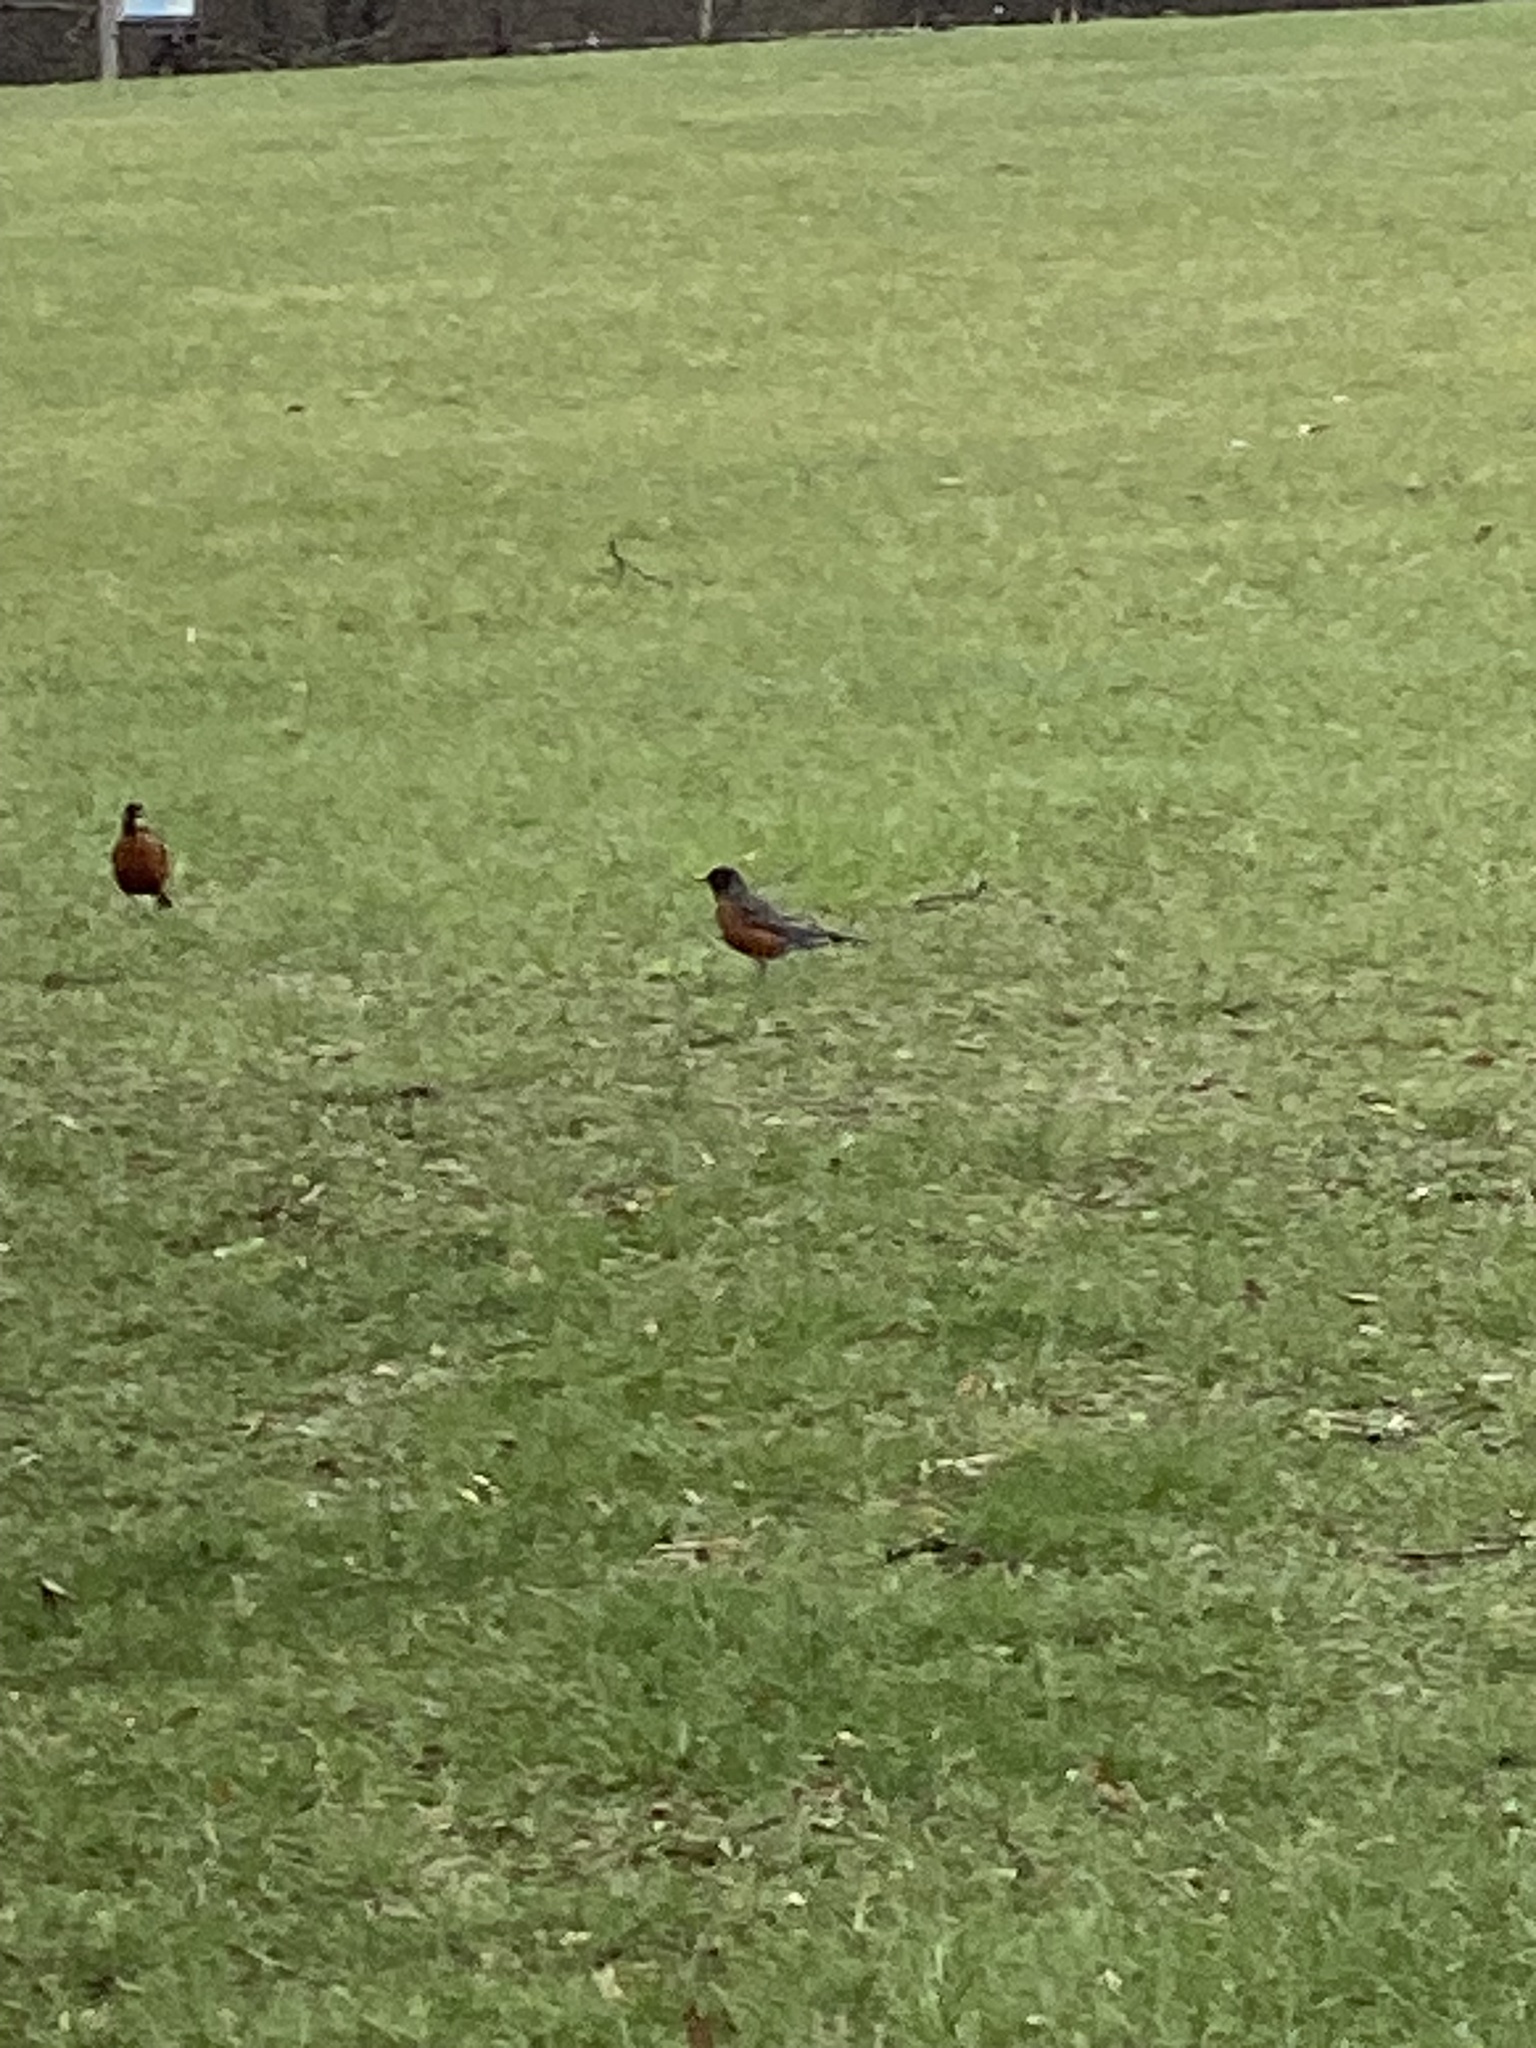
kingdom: Animalia
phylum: Chordata
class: Aves
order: Passeriformes
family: Turdidae
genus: Turdus
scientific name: Turdus migratorius
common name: American robin
